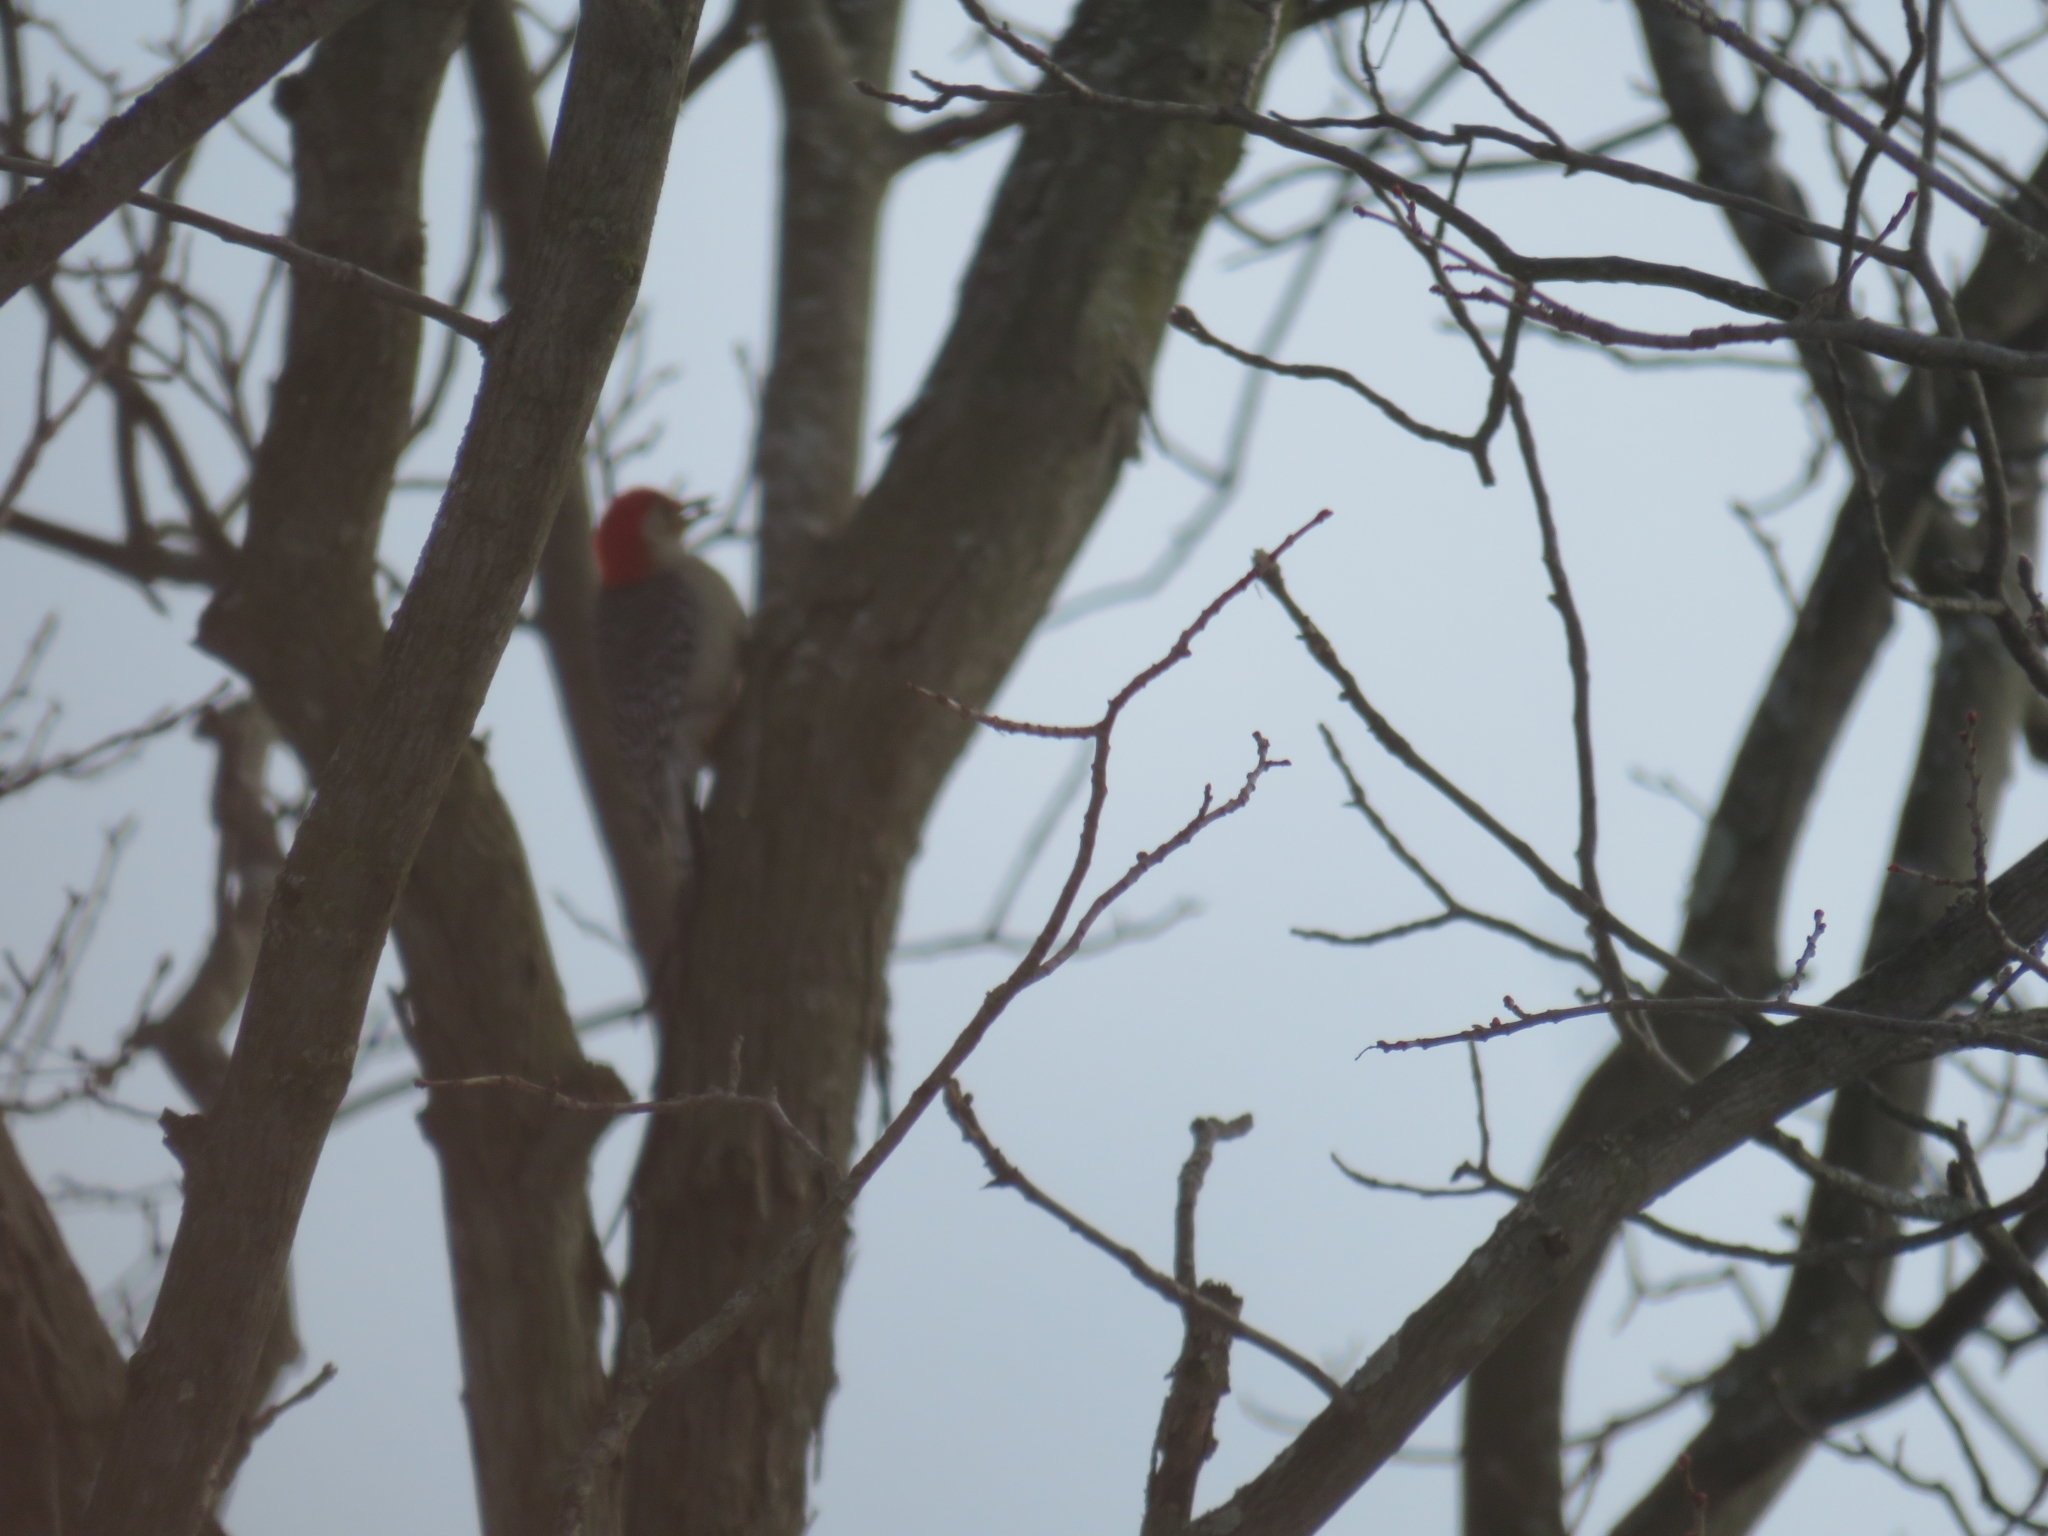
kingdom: Animalia
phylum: Chordata
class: Aves
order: Piciformes
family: Picidae
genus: Melanerpes
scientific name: Melanerpes carolinus
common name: Red-bellied woodpecker
